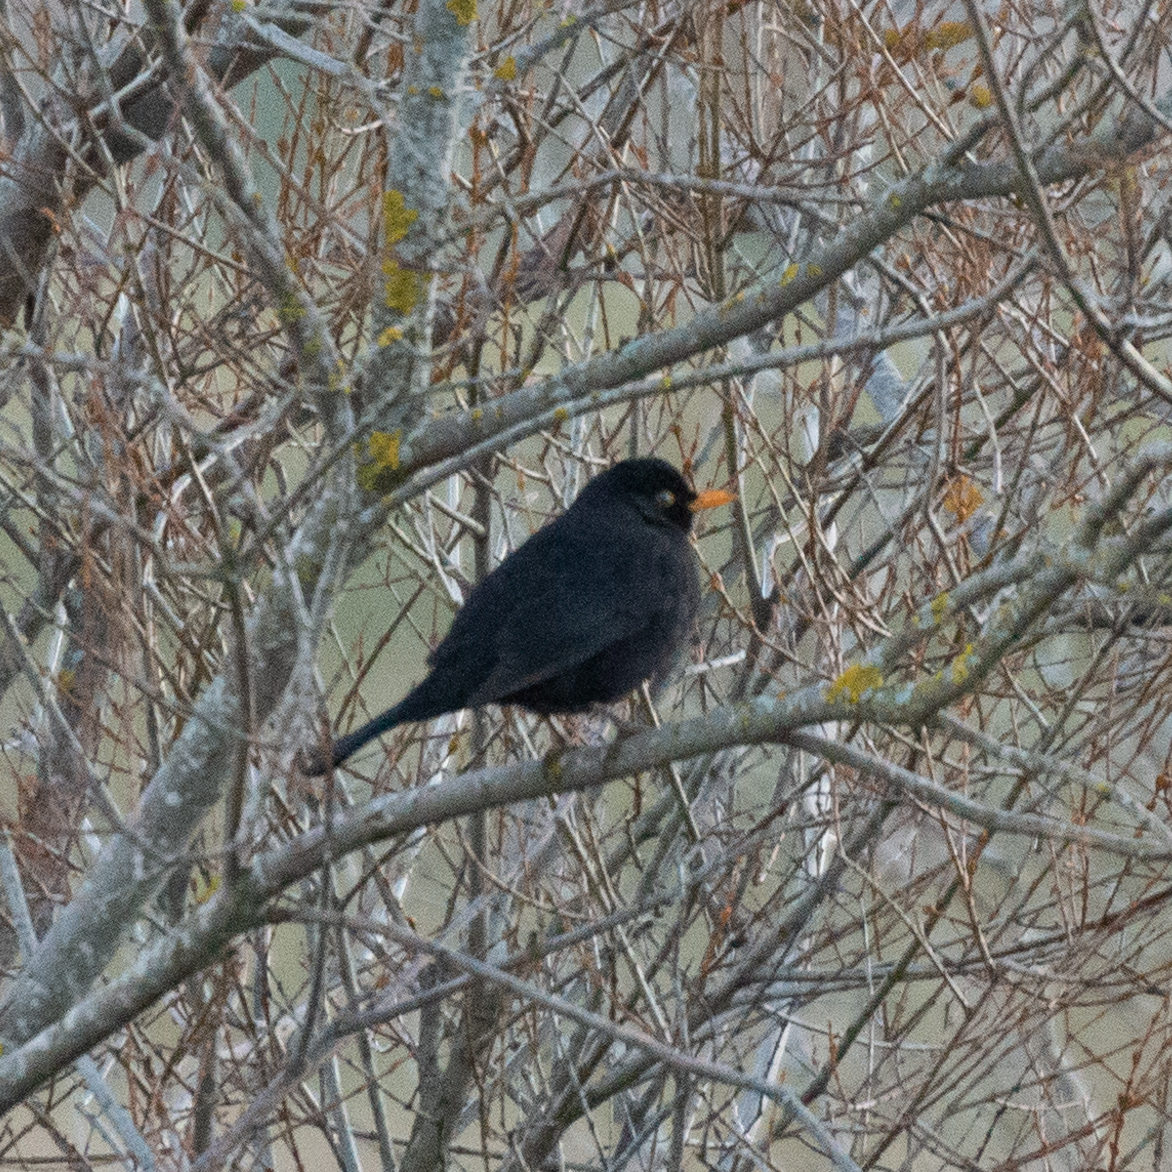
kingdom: Animalia
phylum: Chordata
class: Aves
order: Passeriformes
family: Turdidae
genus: Turdus
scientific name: Turdus merula
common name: Common blackbird
